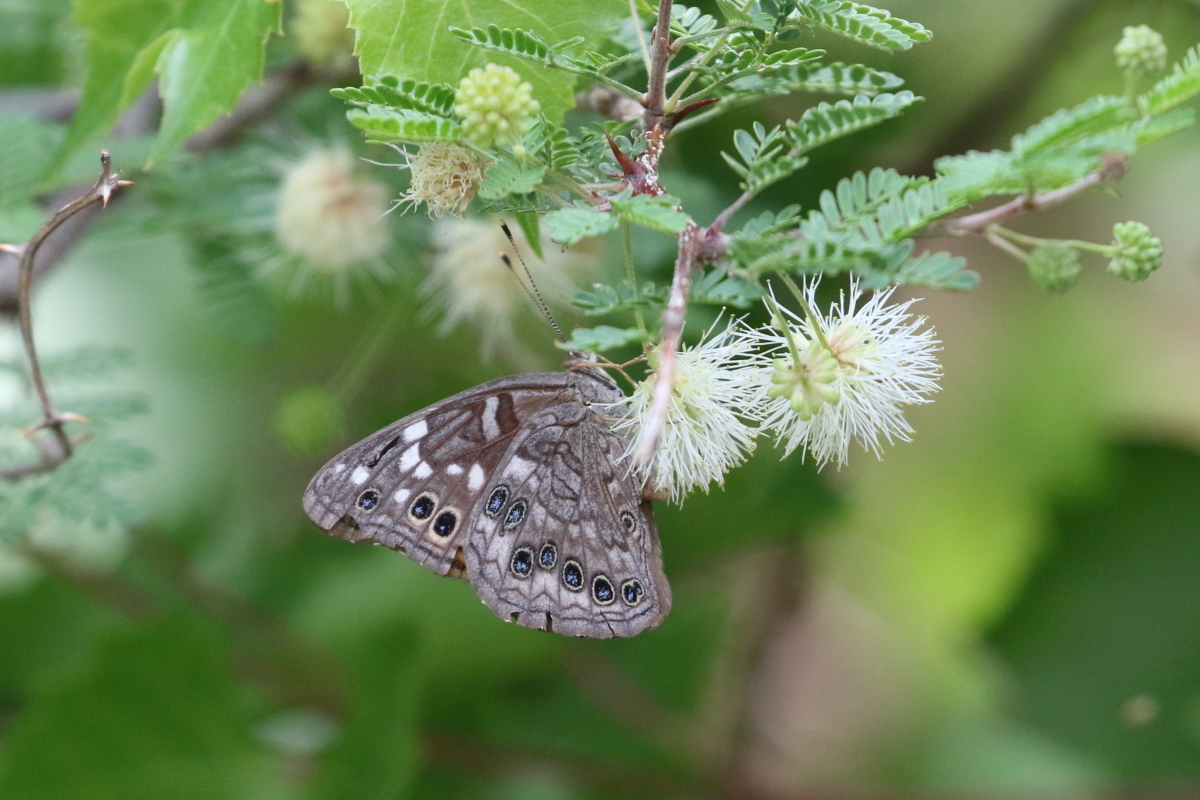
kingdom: Animalia
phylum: Arthropoda
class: Insecta
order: Lepidoptera
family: Nymphalidae
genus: Asterocampa
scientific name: Asterocampa leilia
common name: Empress leilia
